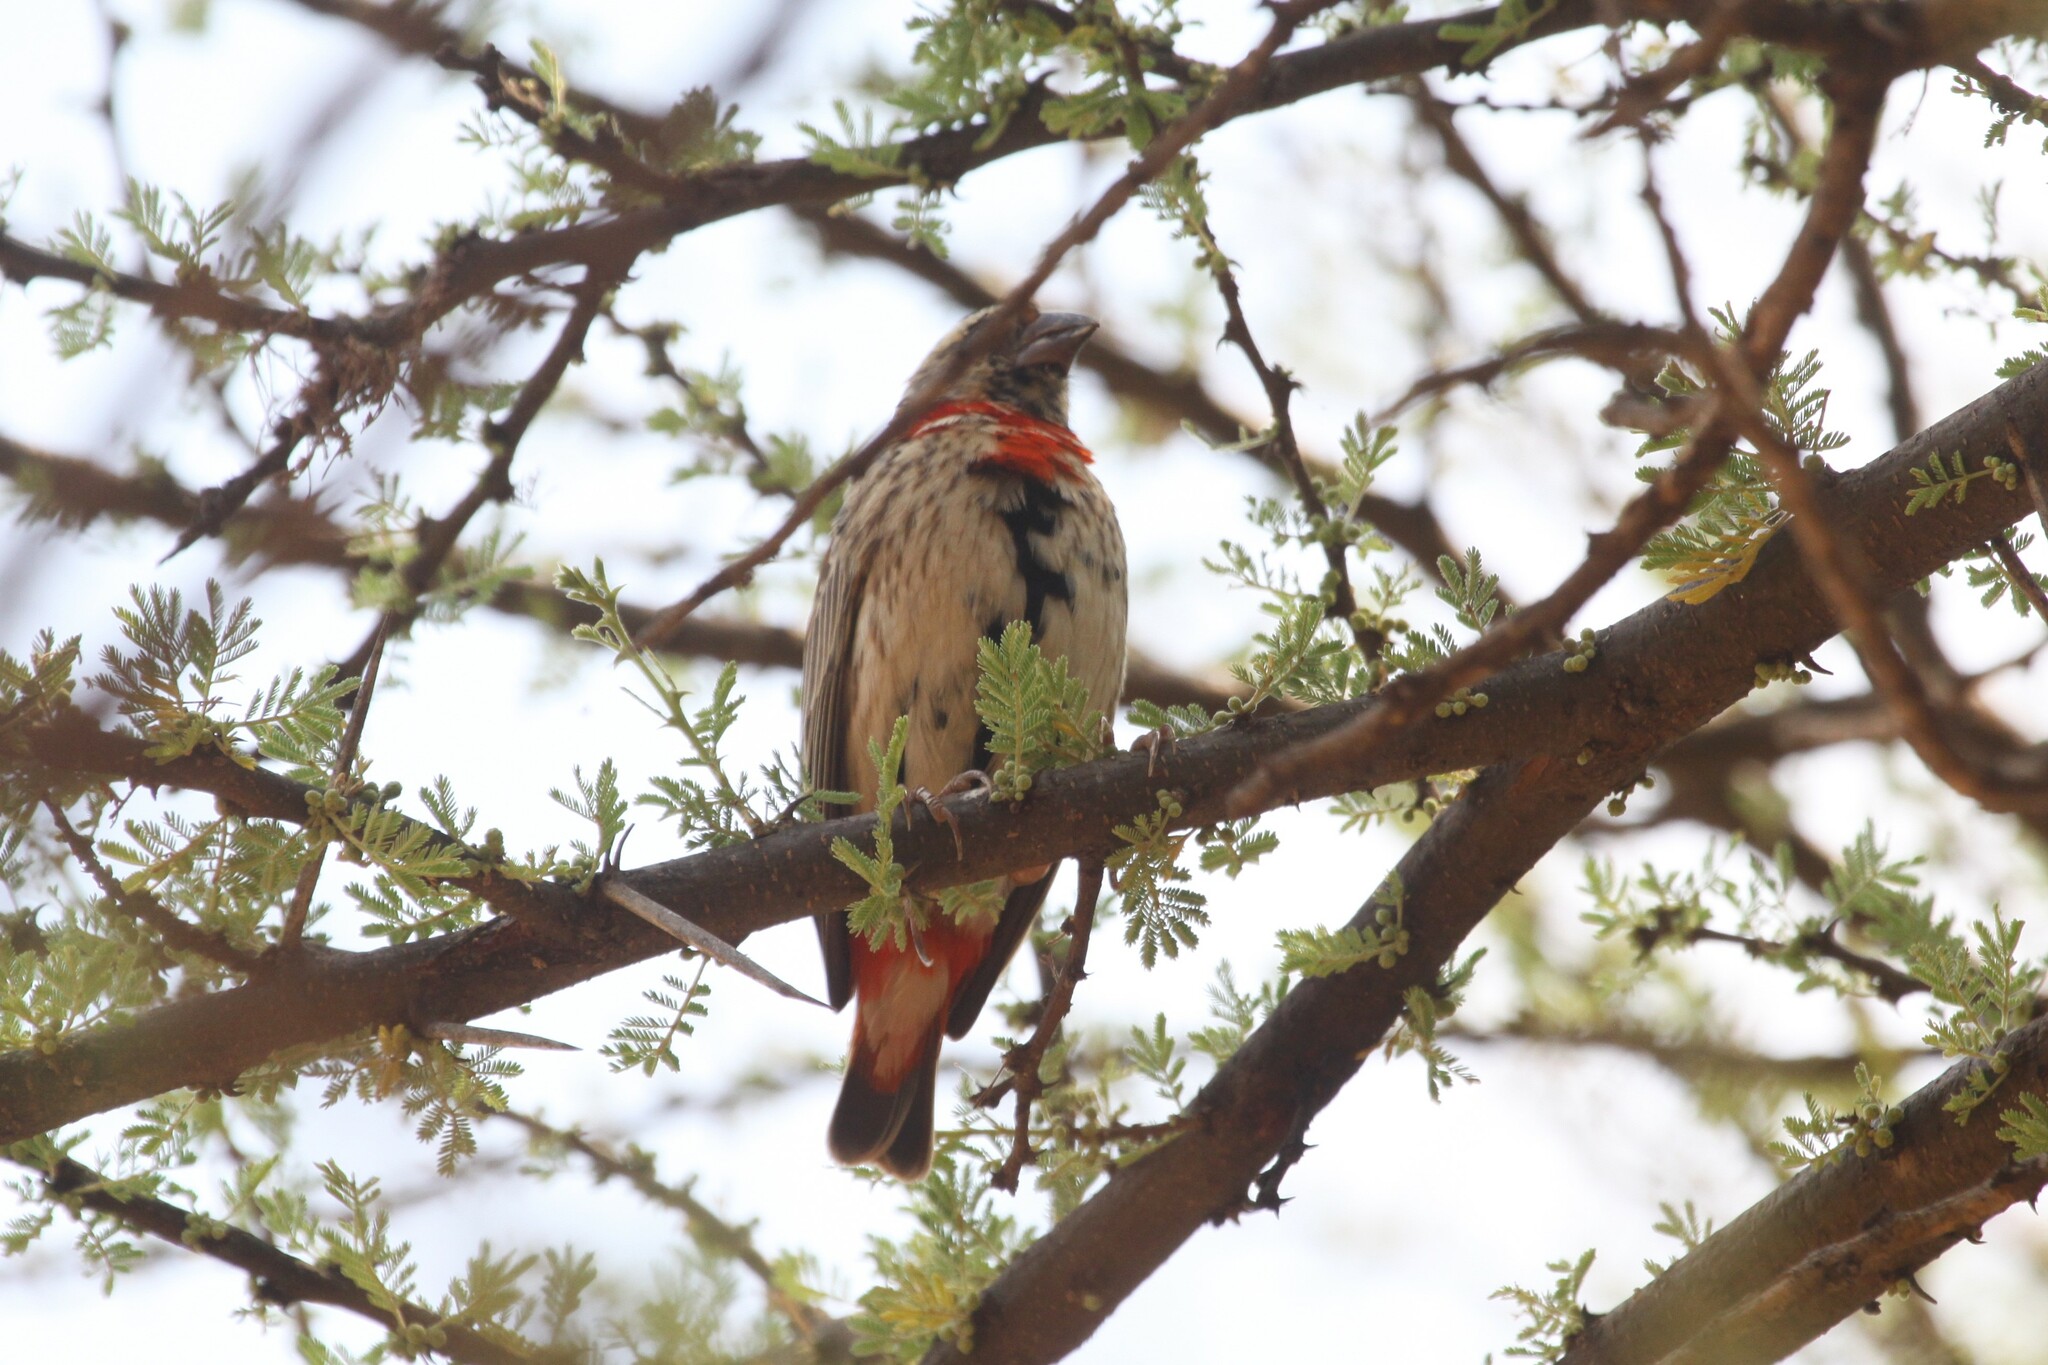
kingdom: Animalia
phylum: Chordata
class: Aves
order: Passeriformes
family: Ploceidae
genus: Euplectes
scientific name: Euplectes orix
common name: Southern red bishop
